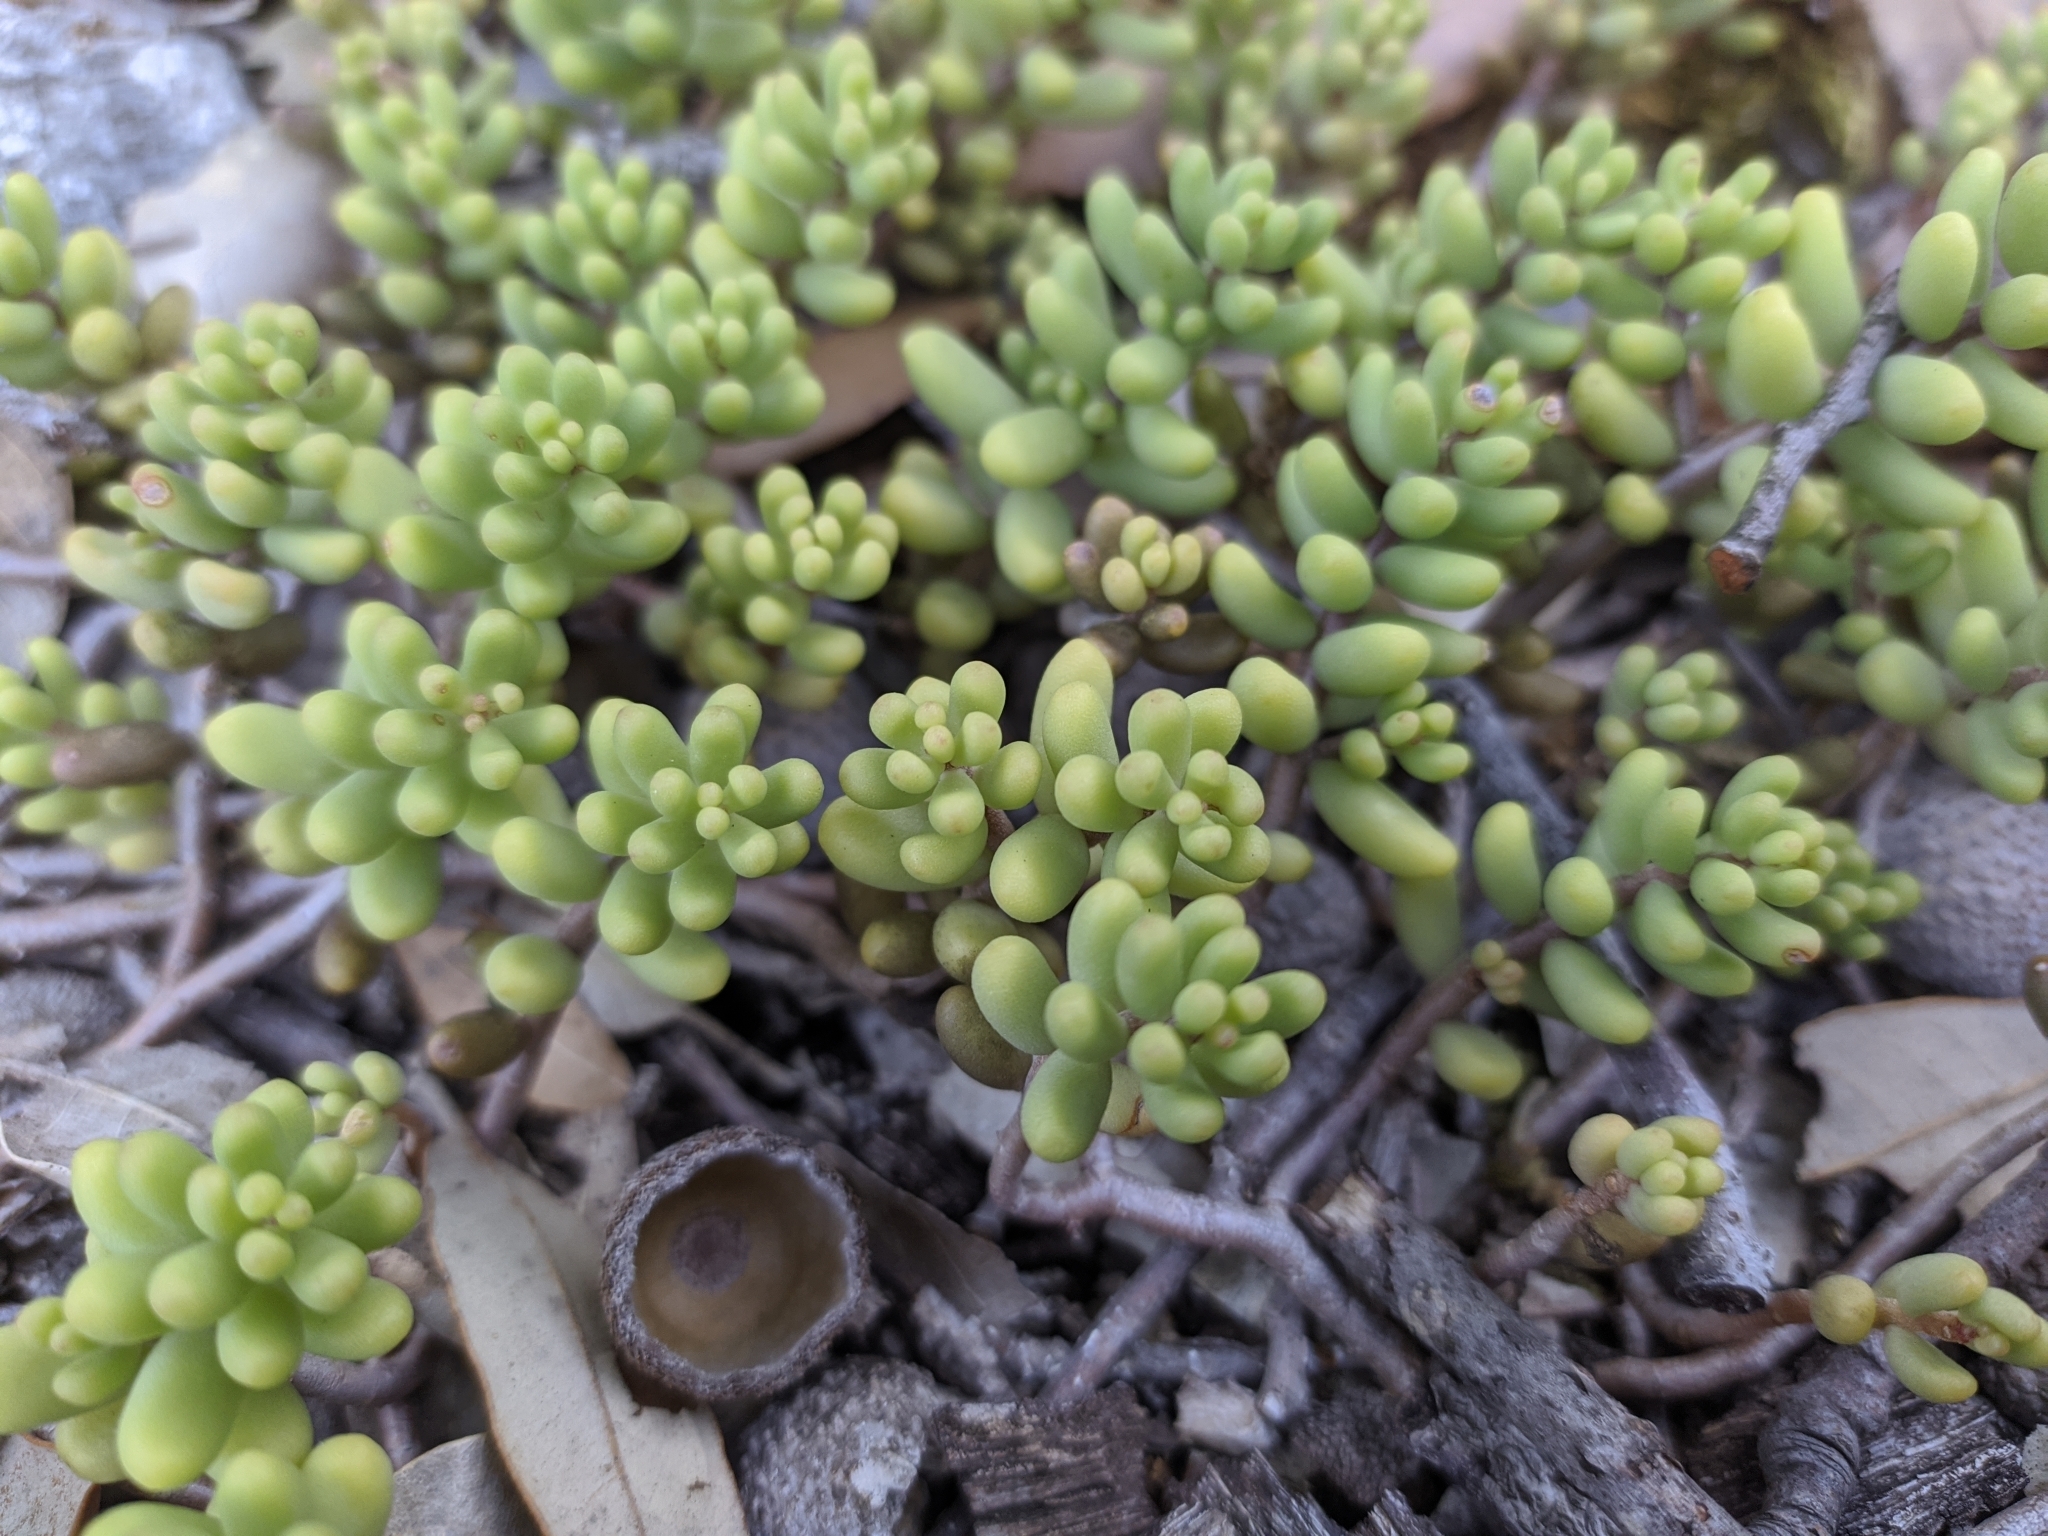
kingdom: Plantae
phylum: Tracheophyta
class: Magnoliopsida
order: Saxifragales
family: Crassulaceae
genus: Sedum
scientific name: Sedum album
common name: White stonecrop
